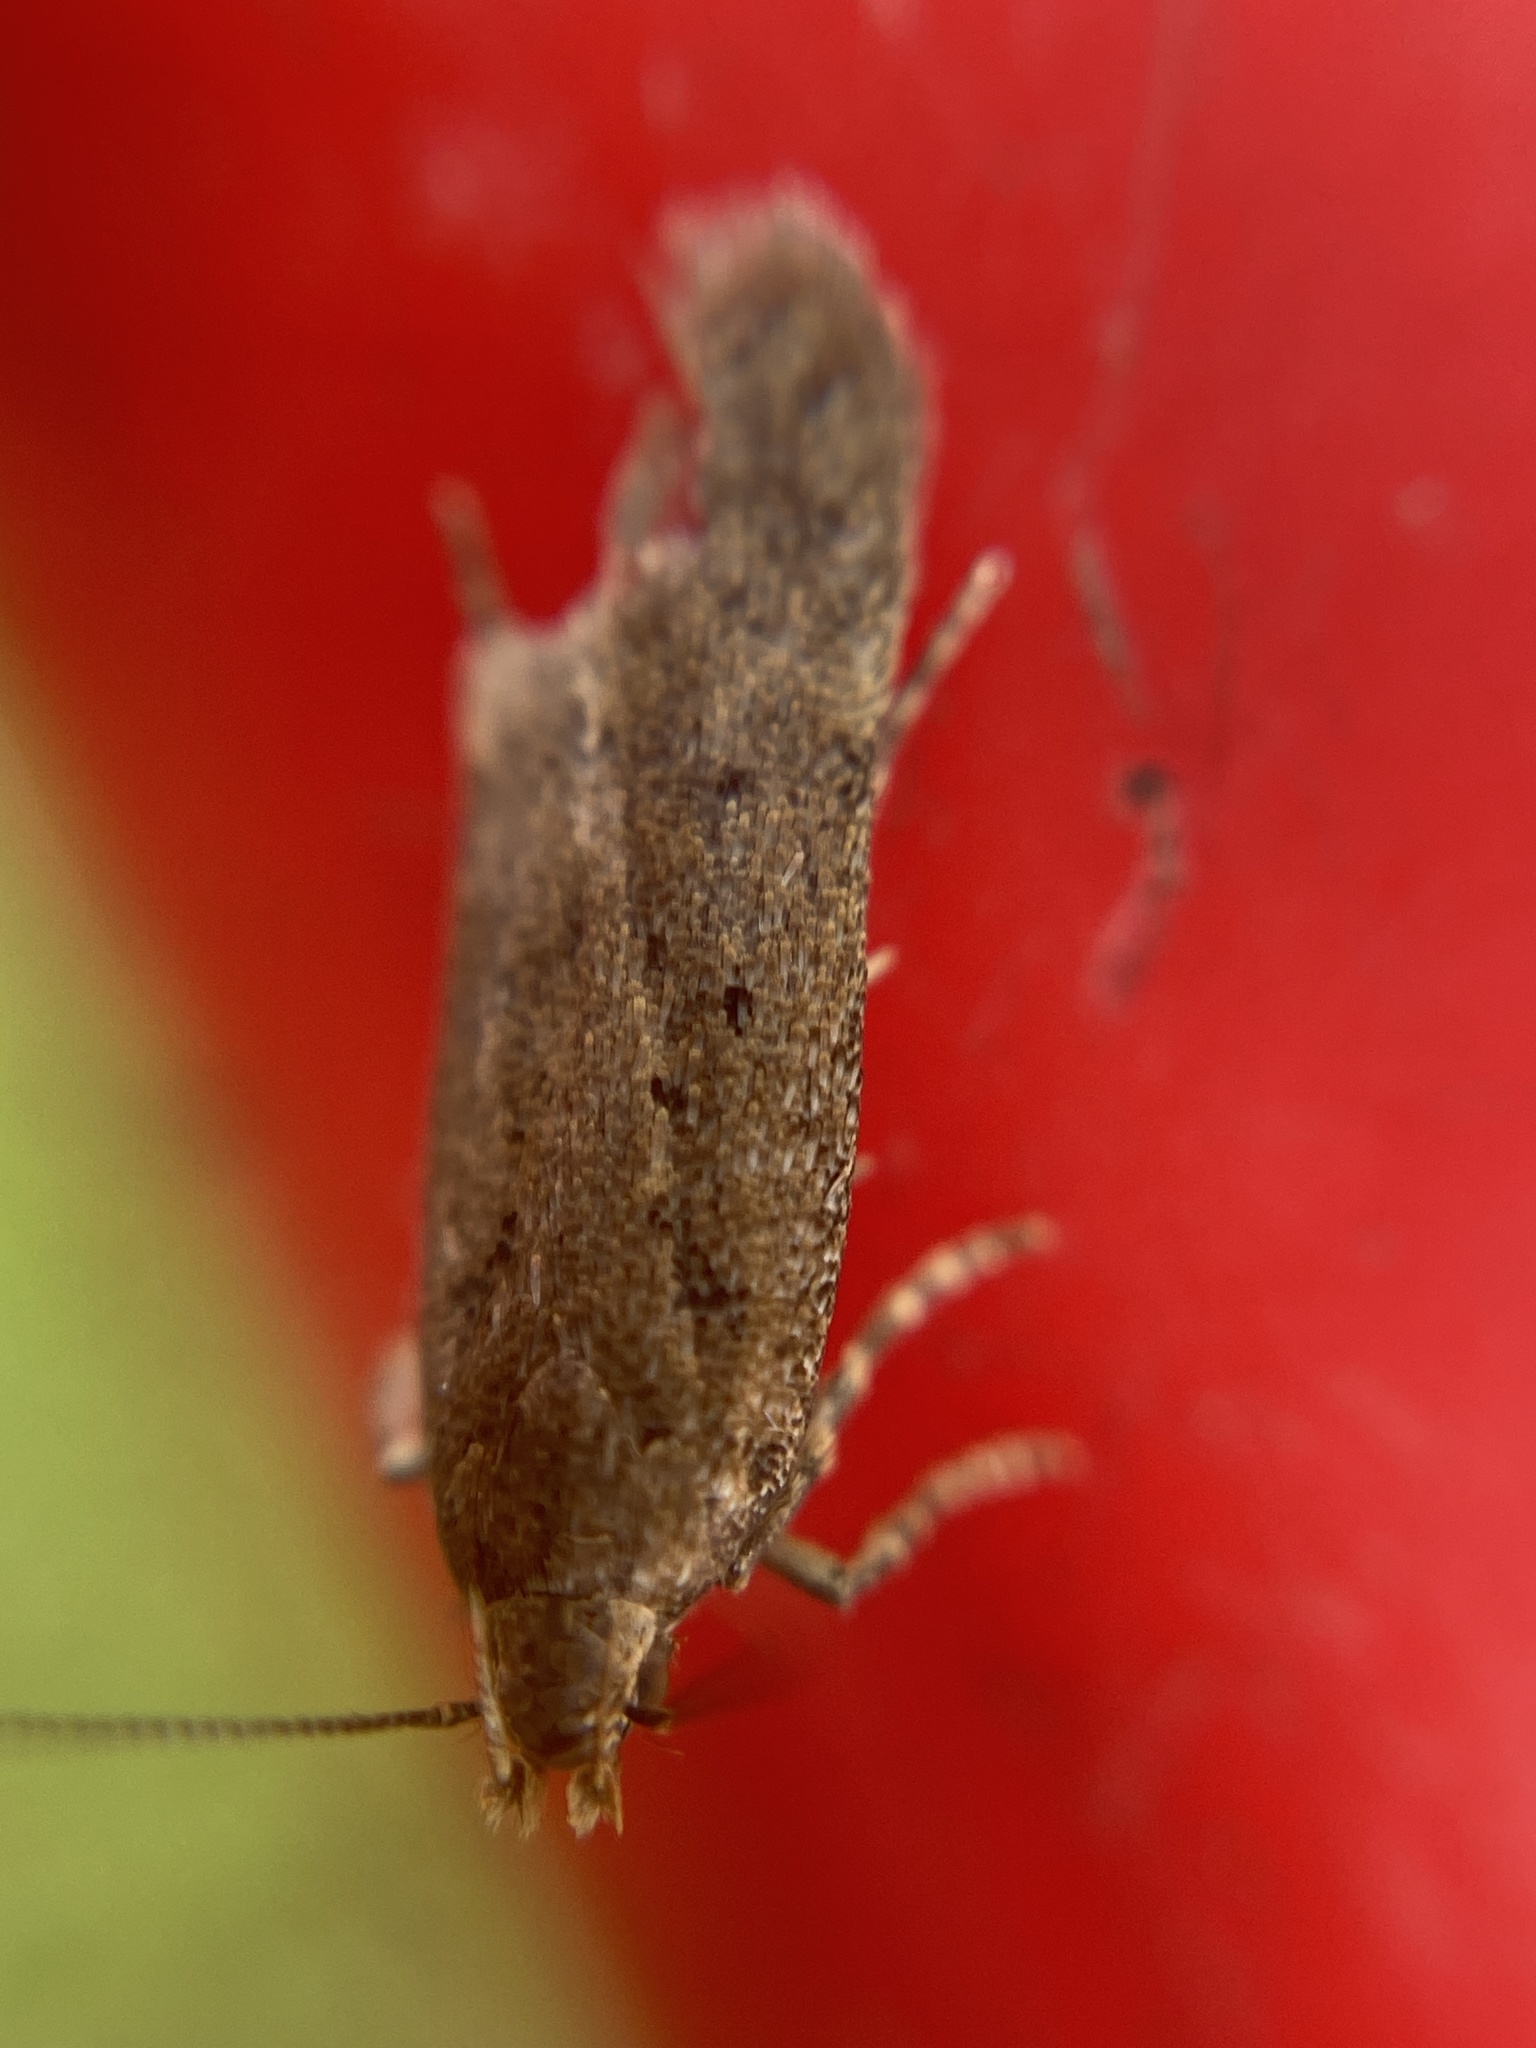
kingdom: Animalia
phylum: Arthropoda
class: Insecta
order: Lepidoptera
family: Gelechiidae
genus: Bryotropha
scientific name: Bryotropha terrella
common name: Cinerous groundling
